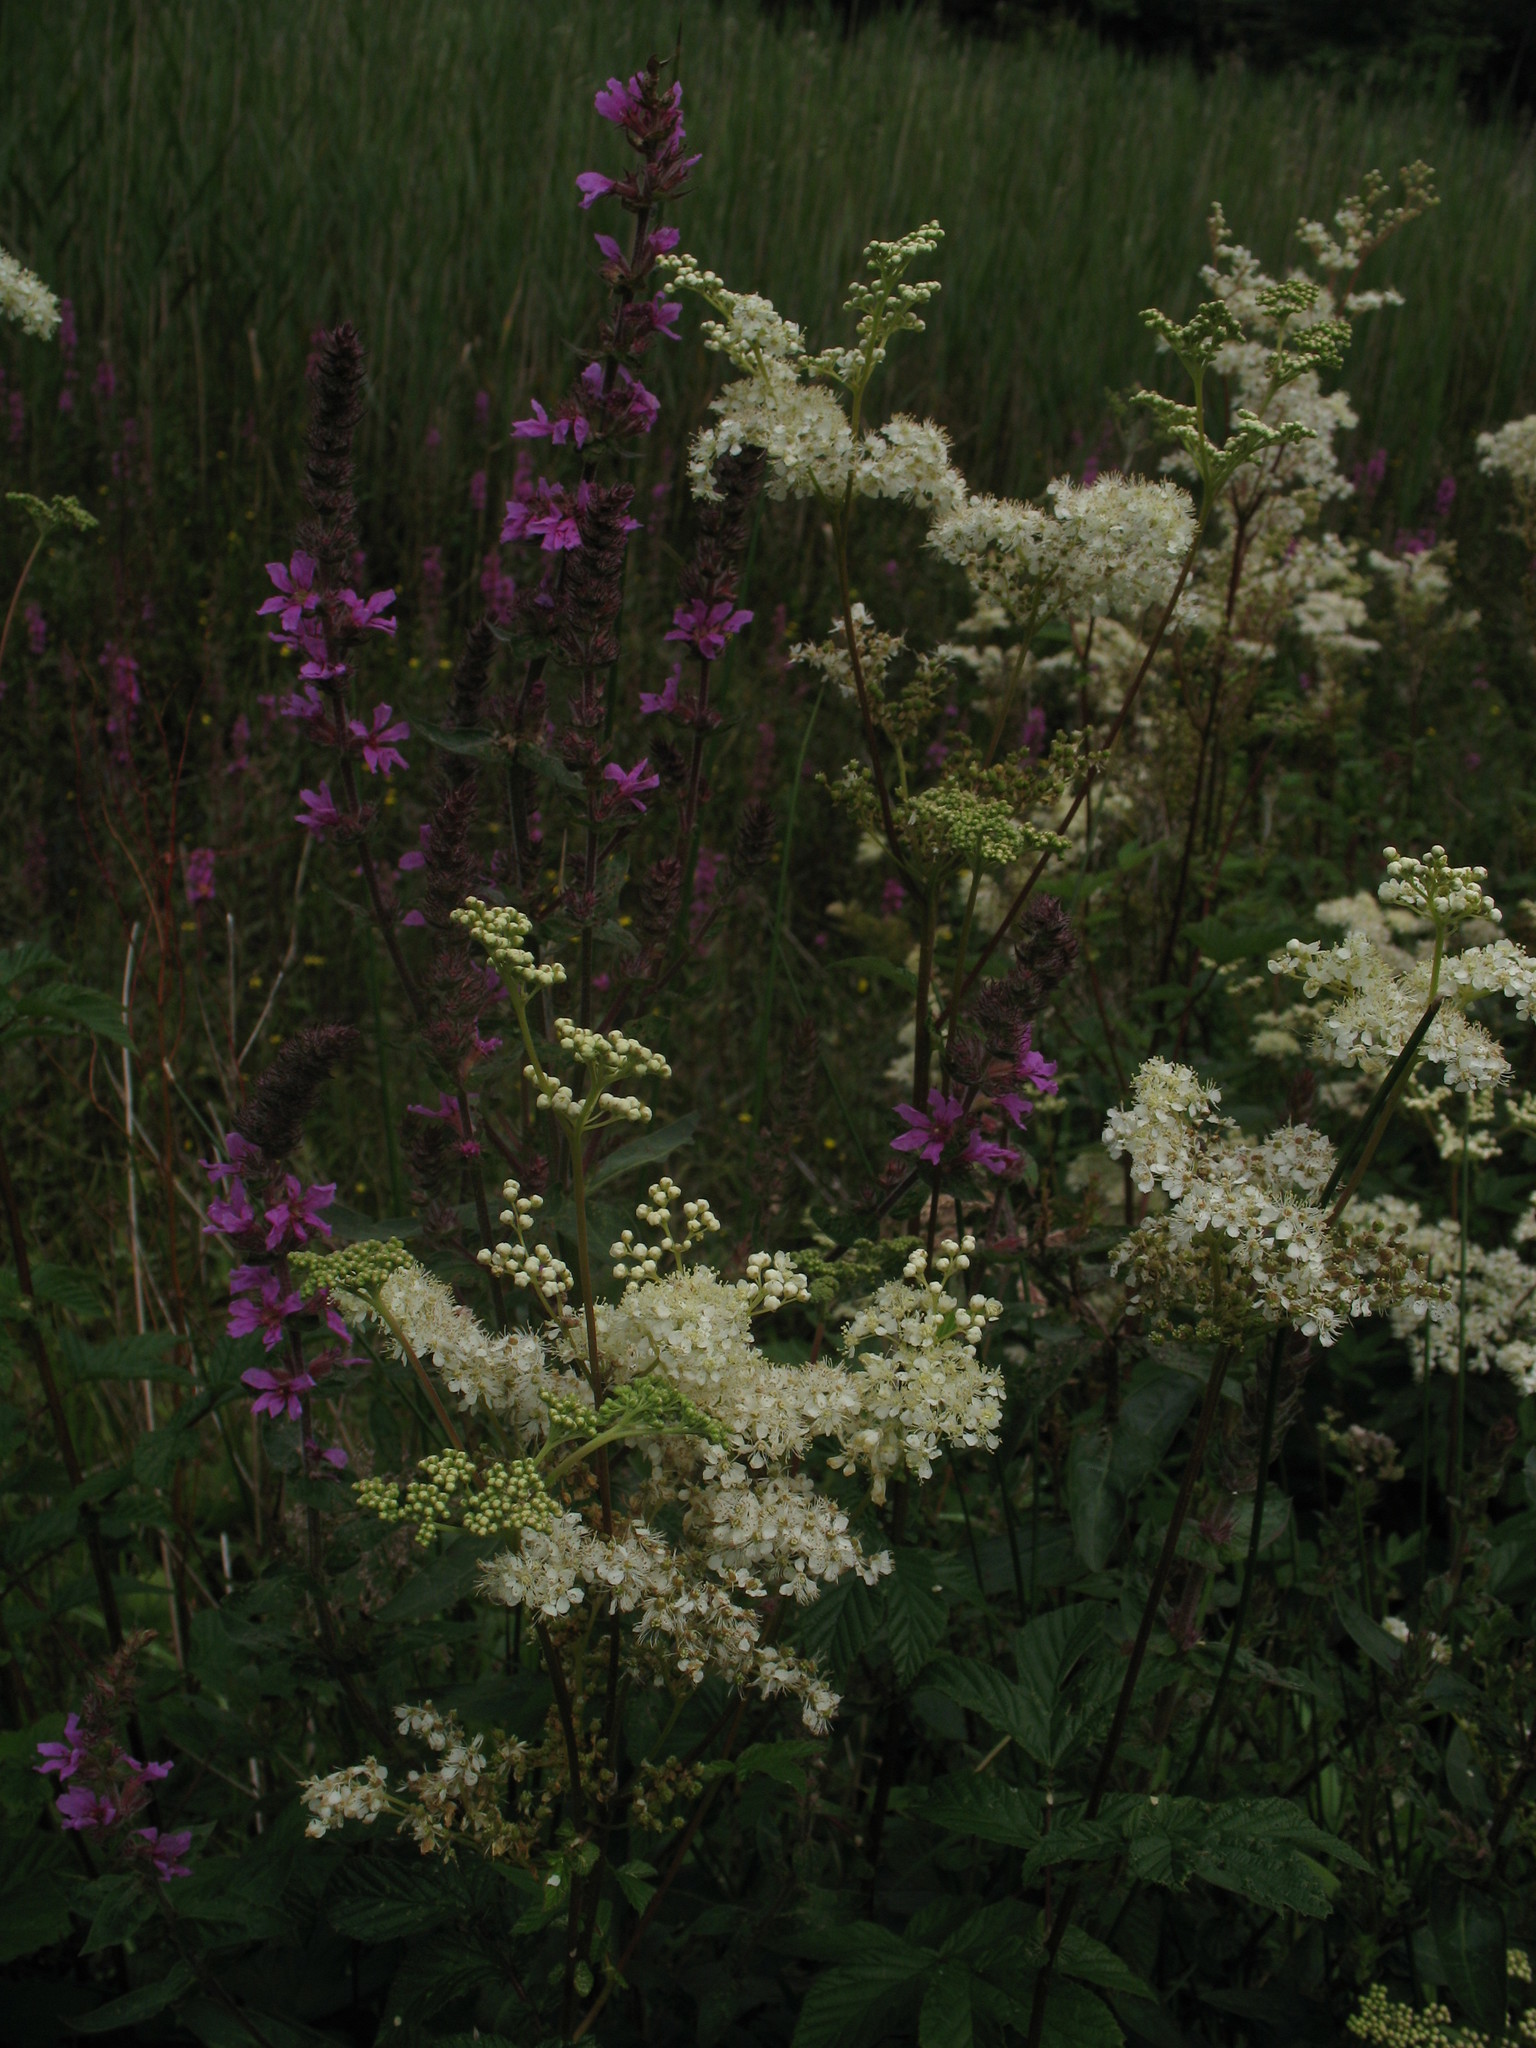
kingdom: Plantae
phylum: Tracheophyta
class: Magnoliopsida
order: Myrtales
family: Lythraceae
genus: Lythrum
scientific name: Lythrum salicaria
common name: Purple loosestrife
